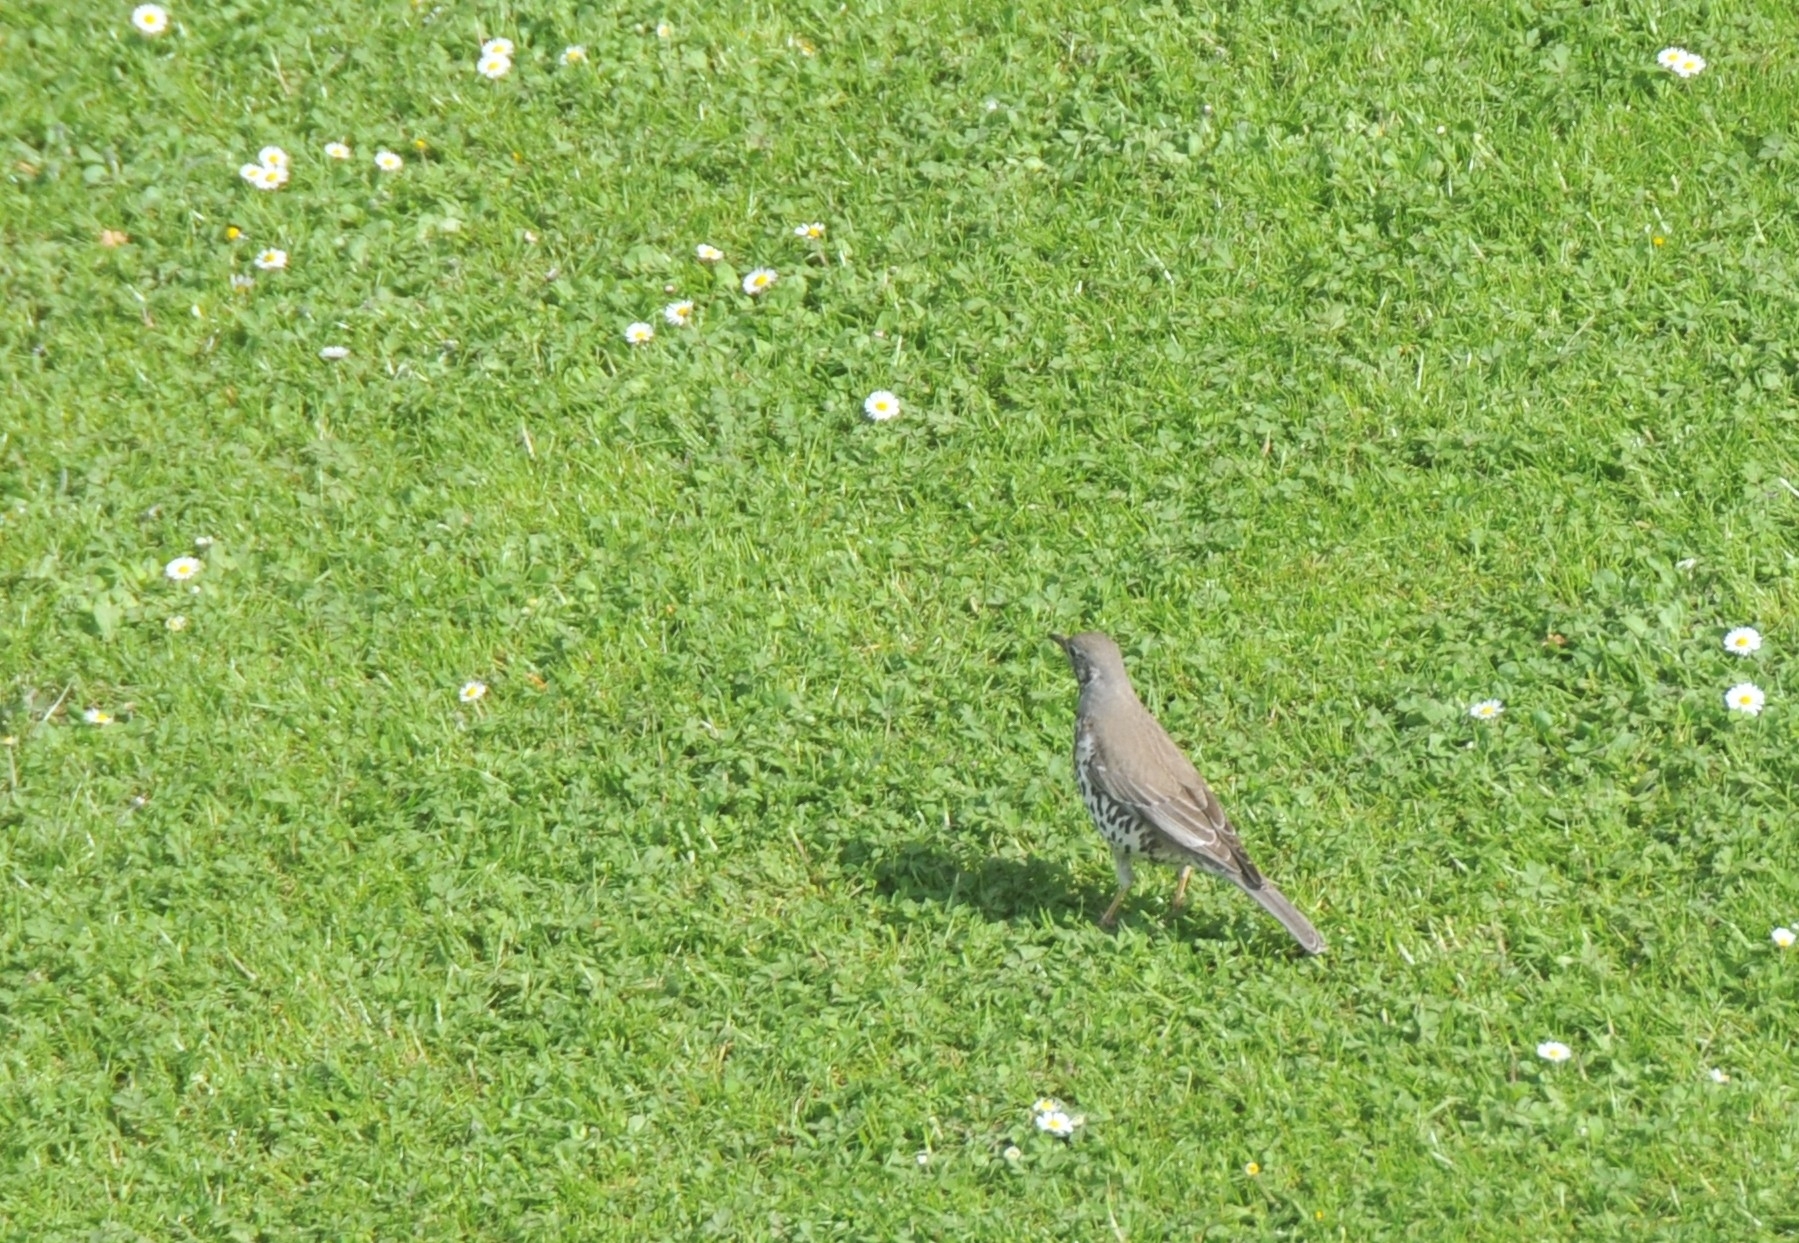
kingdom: Animalia
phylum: Chordata
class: Aves
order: Passeriformes
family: Turdidae
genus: Turdus
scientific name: Turdus viscivorus
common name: Mistle thrush
